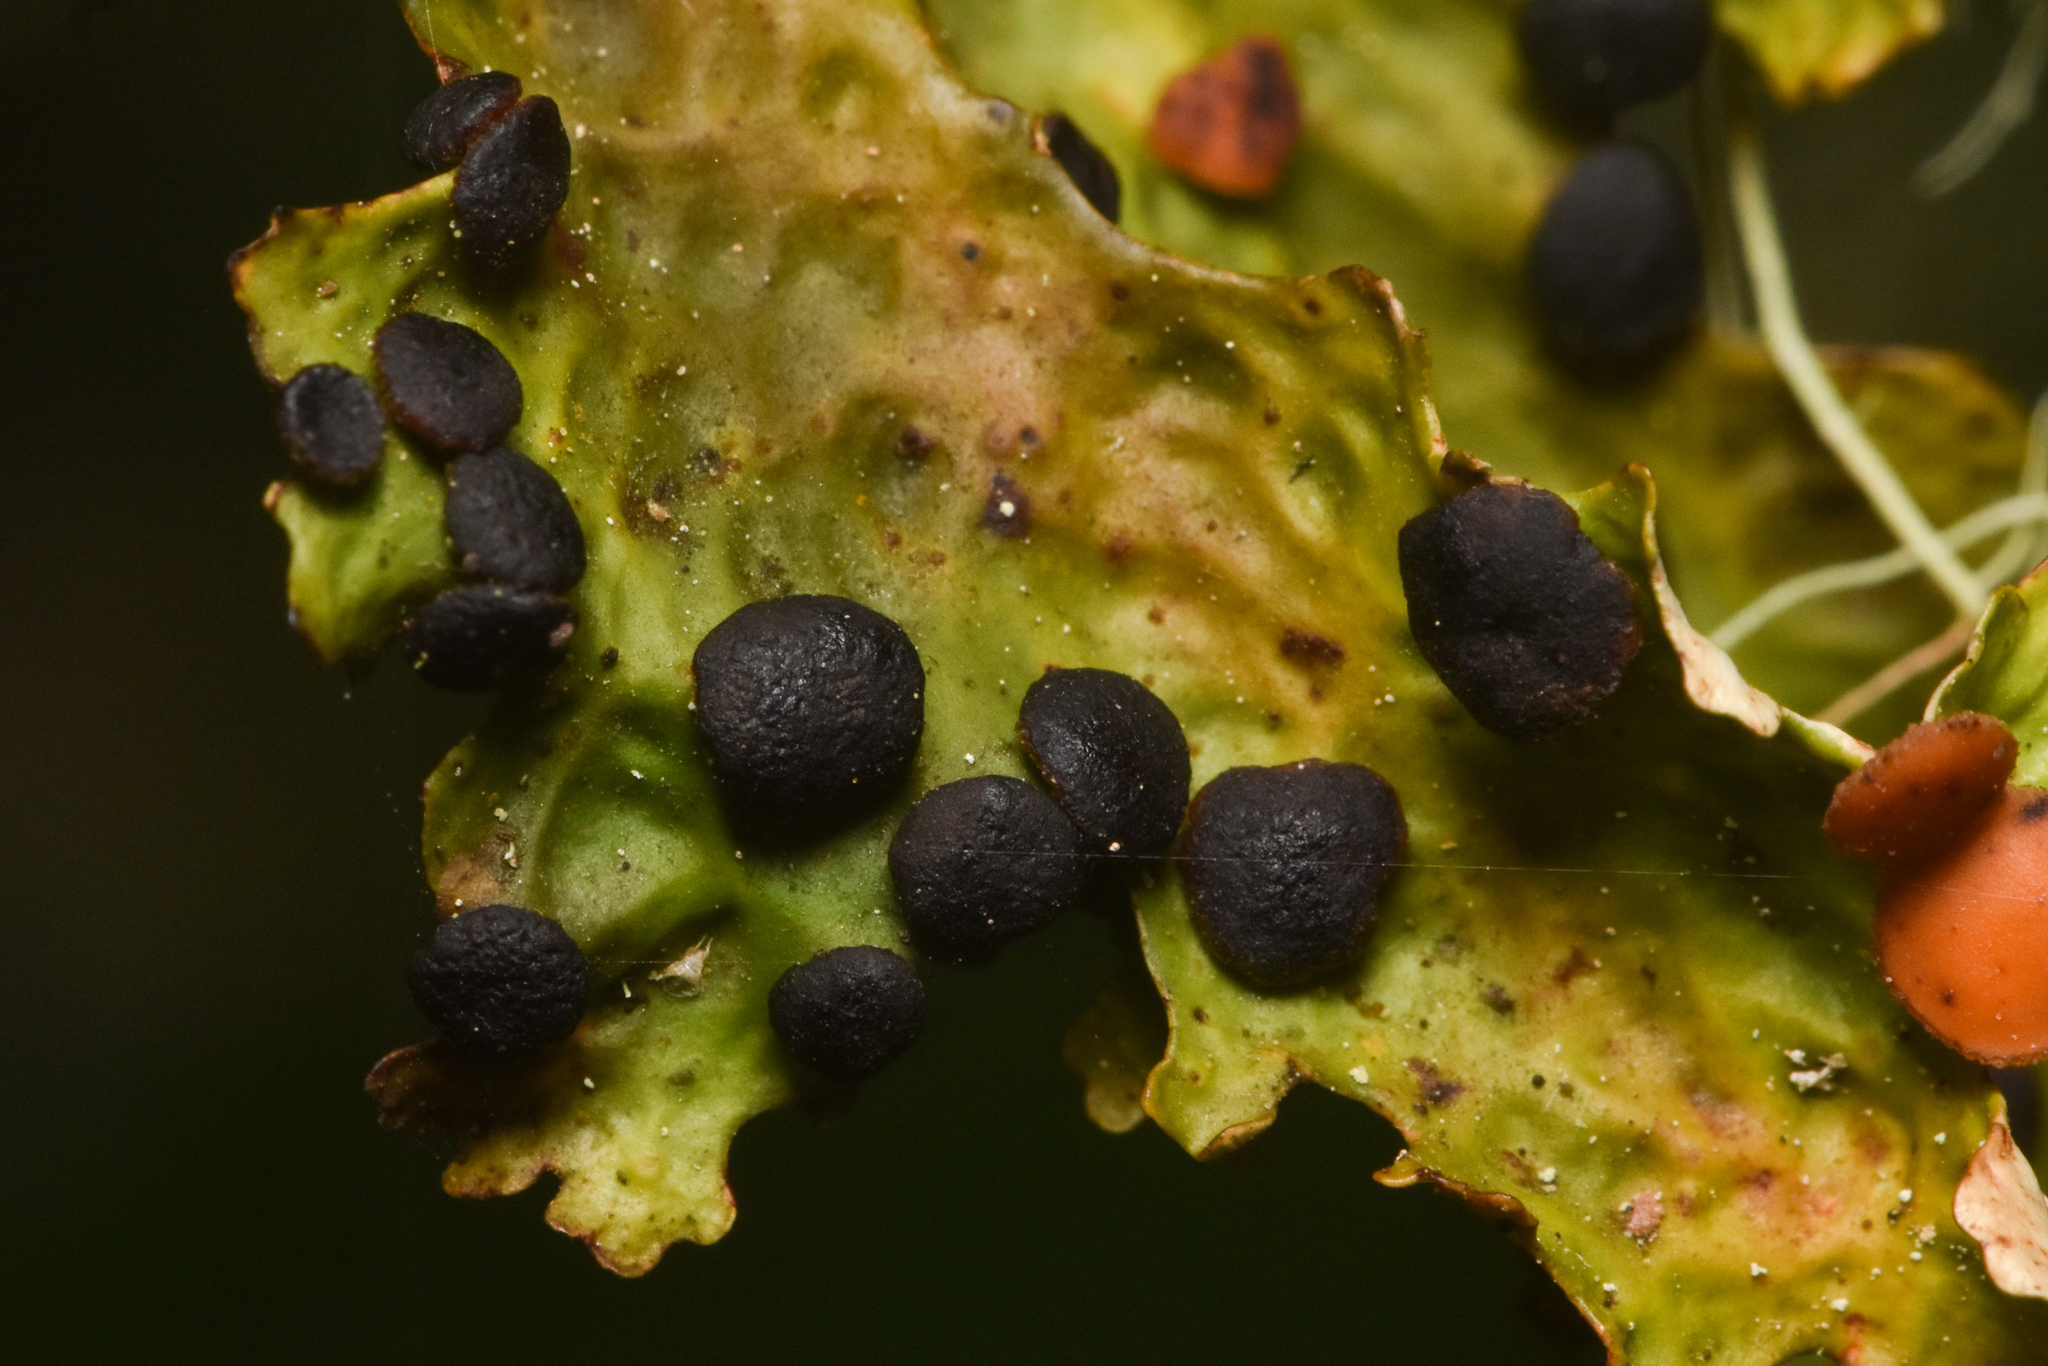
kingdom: Fungi
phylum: Ascomycota
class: Arthoniomycetes
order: Arthoniales
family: Lecanographaceae
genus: Plectocarpon
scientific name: Plectocarpon lichenum
